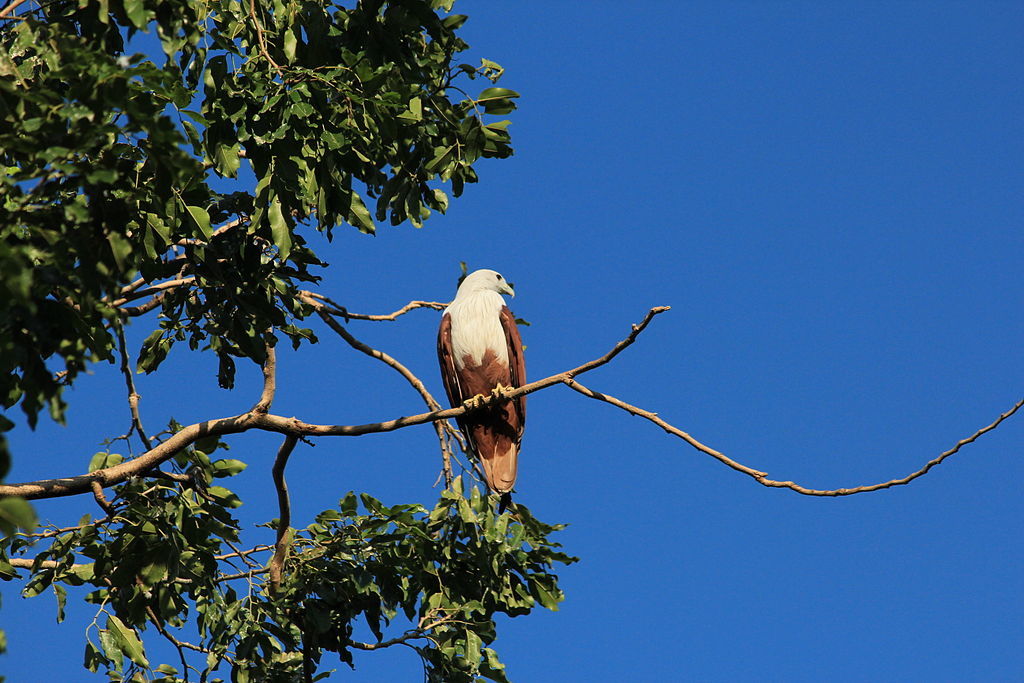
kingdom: Animalia
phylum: Chordata
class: Aves
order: Accipitriformes
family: Accipitridae
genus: Haliastur
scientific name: Haliastur indus
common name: Brahminy kite
